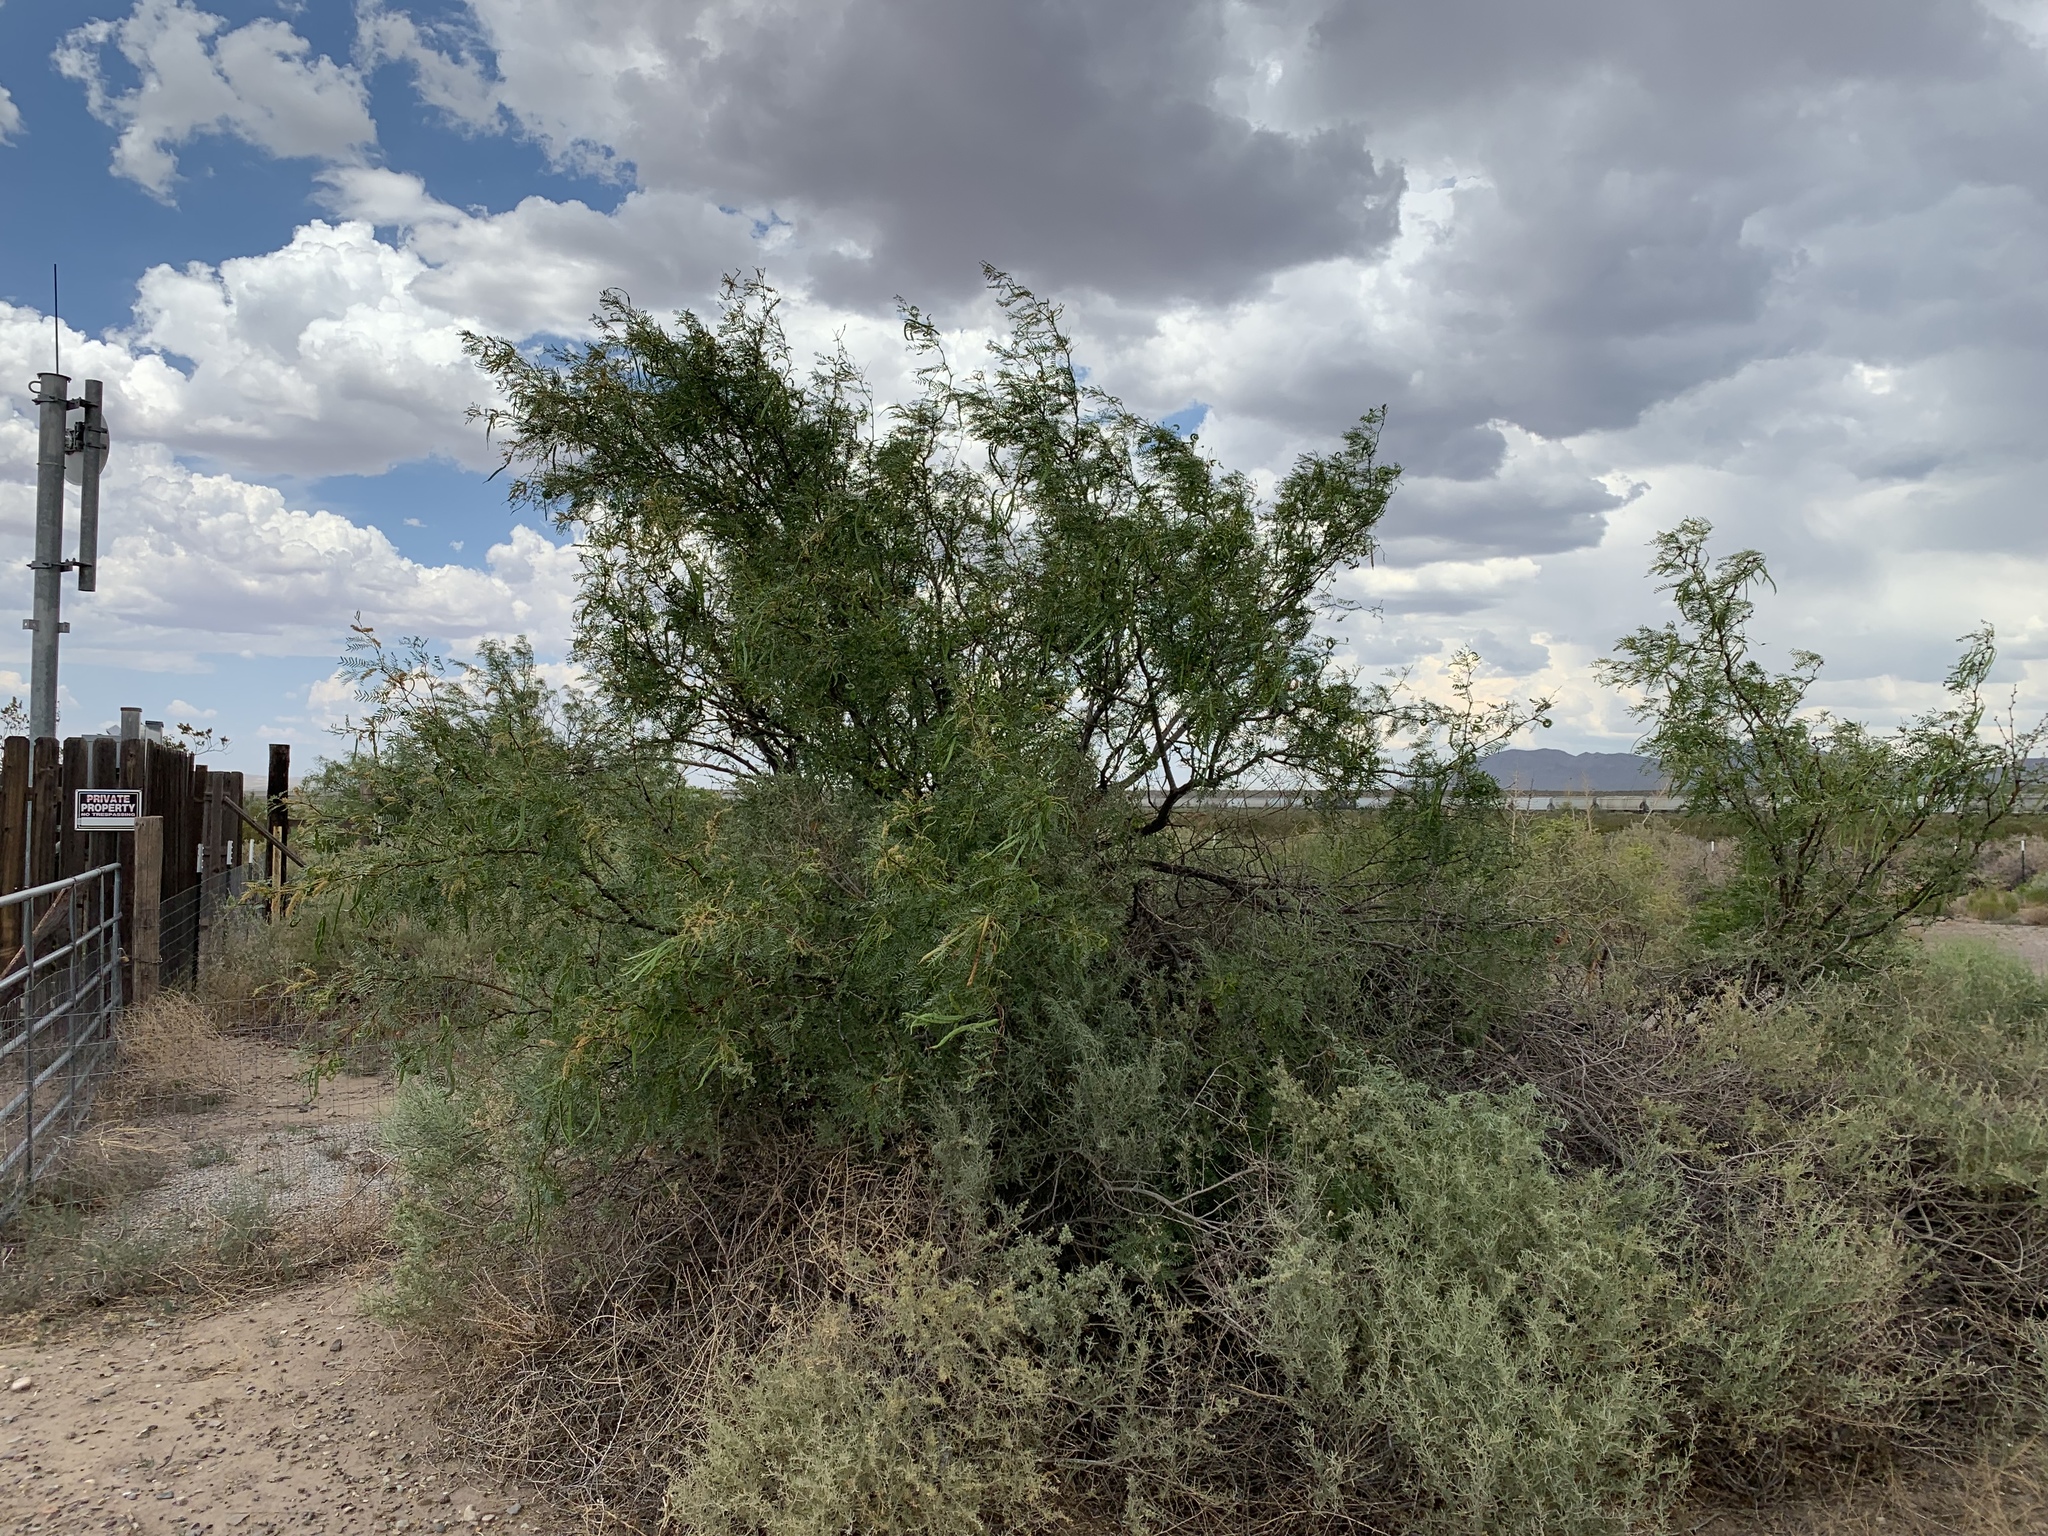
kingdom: Plantae
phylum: Tracheophyta
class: Magnoliopsida
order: Fabales
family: Fabaceae
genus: Prosopis
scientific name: Prosopis glandulosa
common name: Honey mesquite
